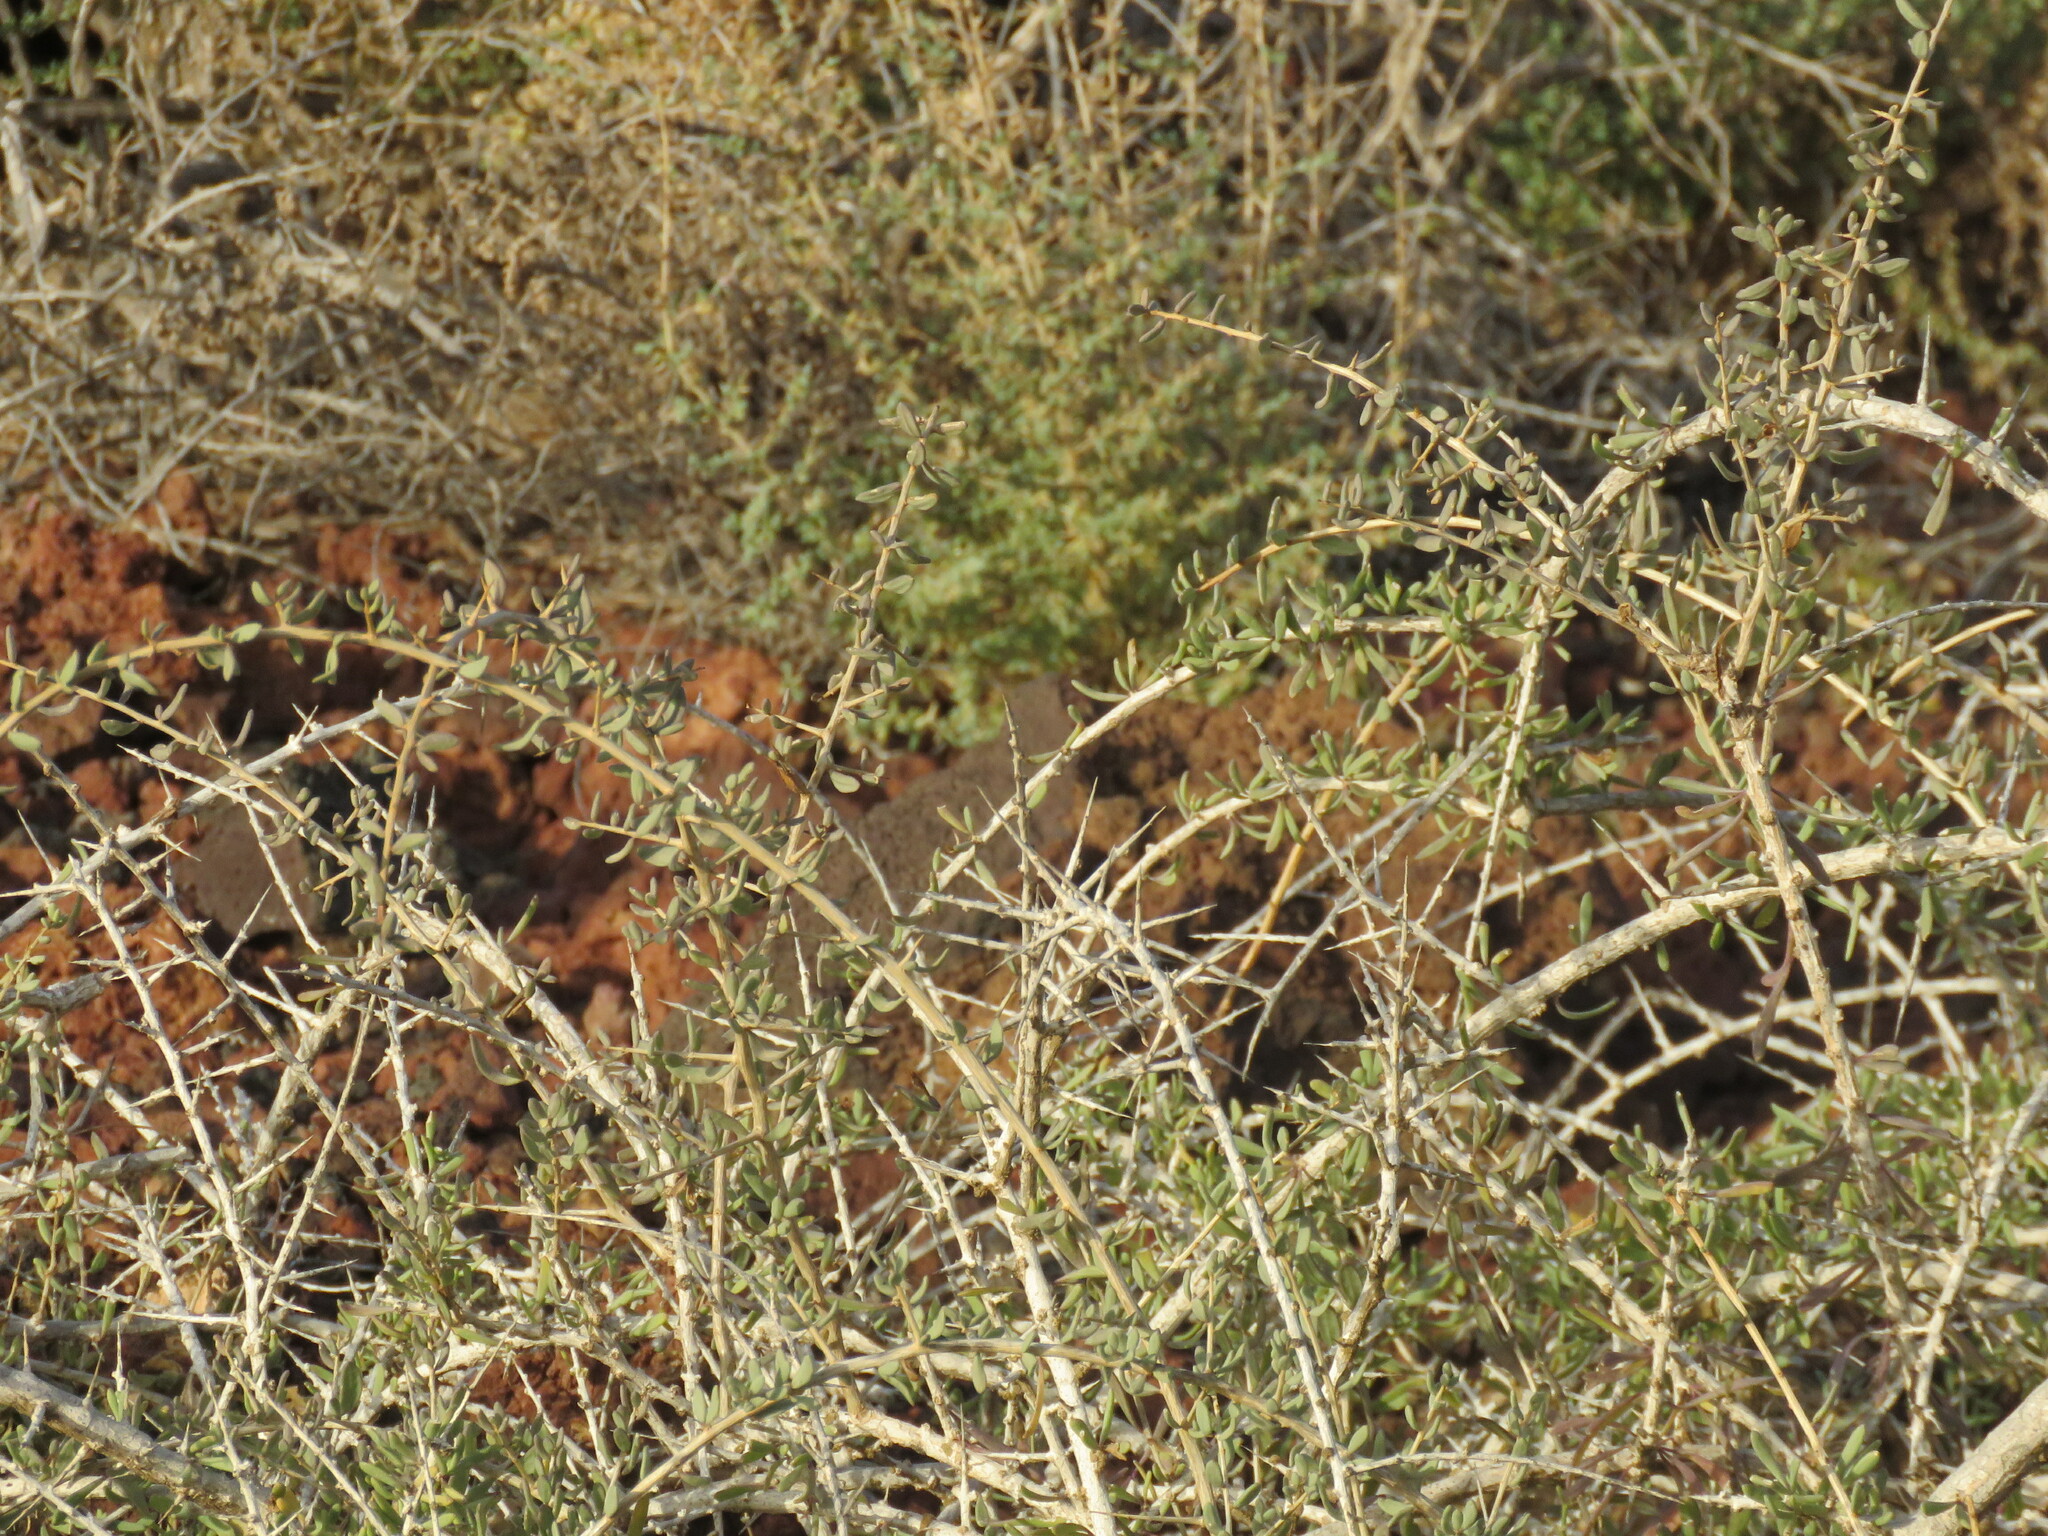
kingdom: Plantae
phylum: Tracheophyta
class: Magnoliopsida
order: Solanales
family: Solanaceae
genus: Lycium
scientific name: Lycium intricatum
